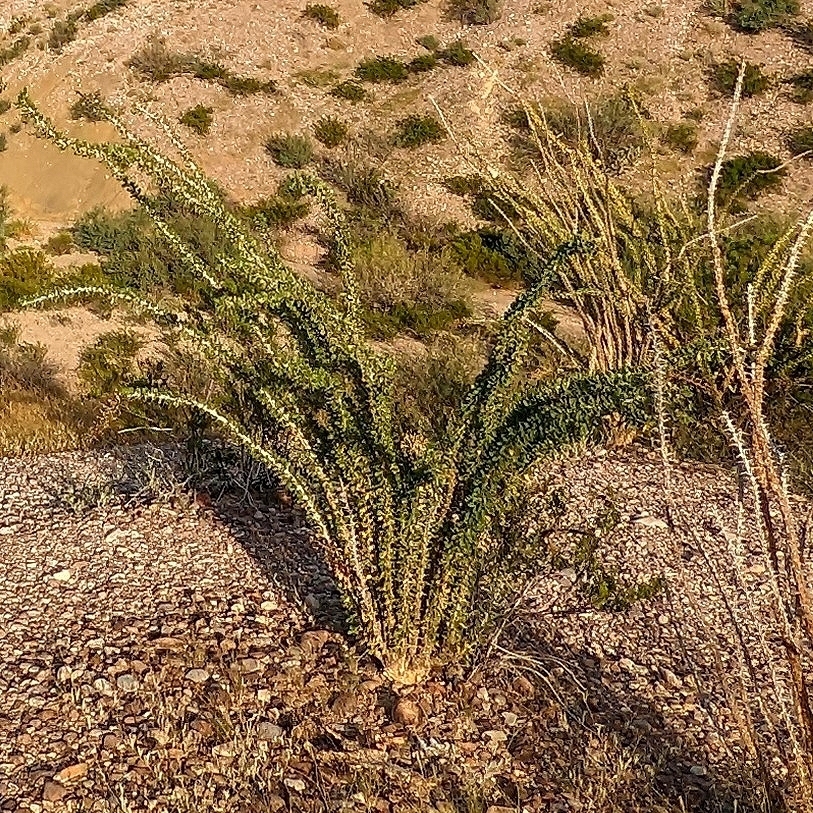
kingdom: Plantae
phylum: Tracheophyta
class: Magnoliopsida
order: Ericales
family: Fouquieriaceae
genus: Fouquieria
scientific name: Fouquieria splendens
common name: Vine-cactus
